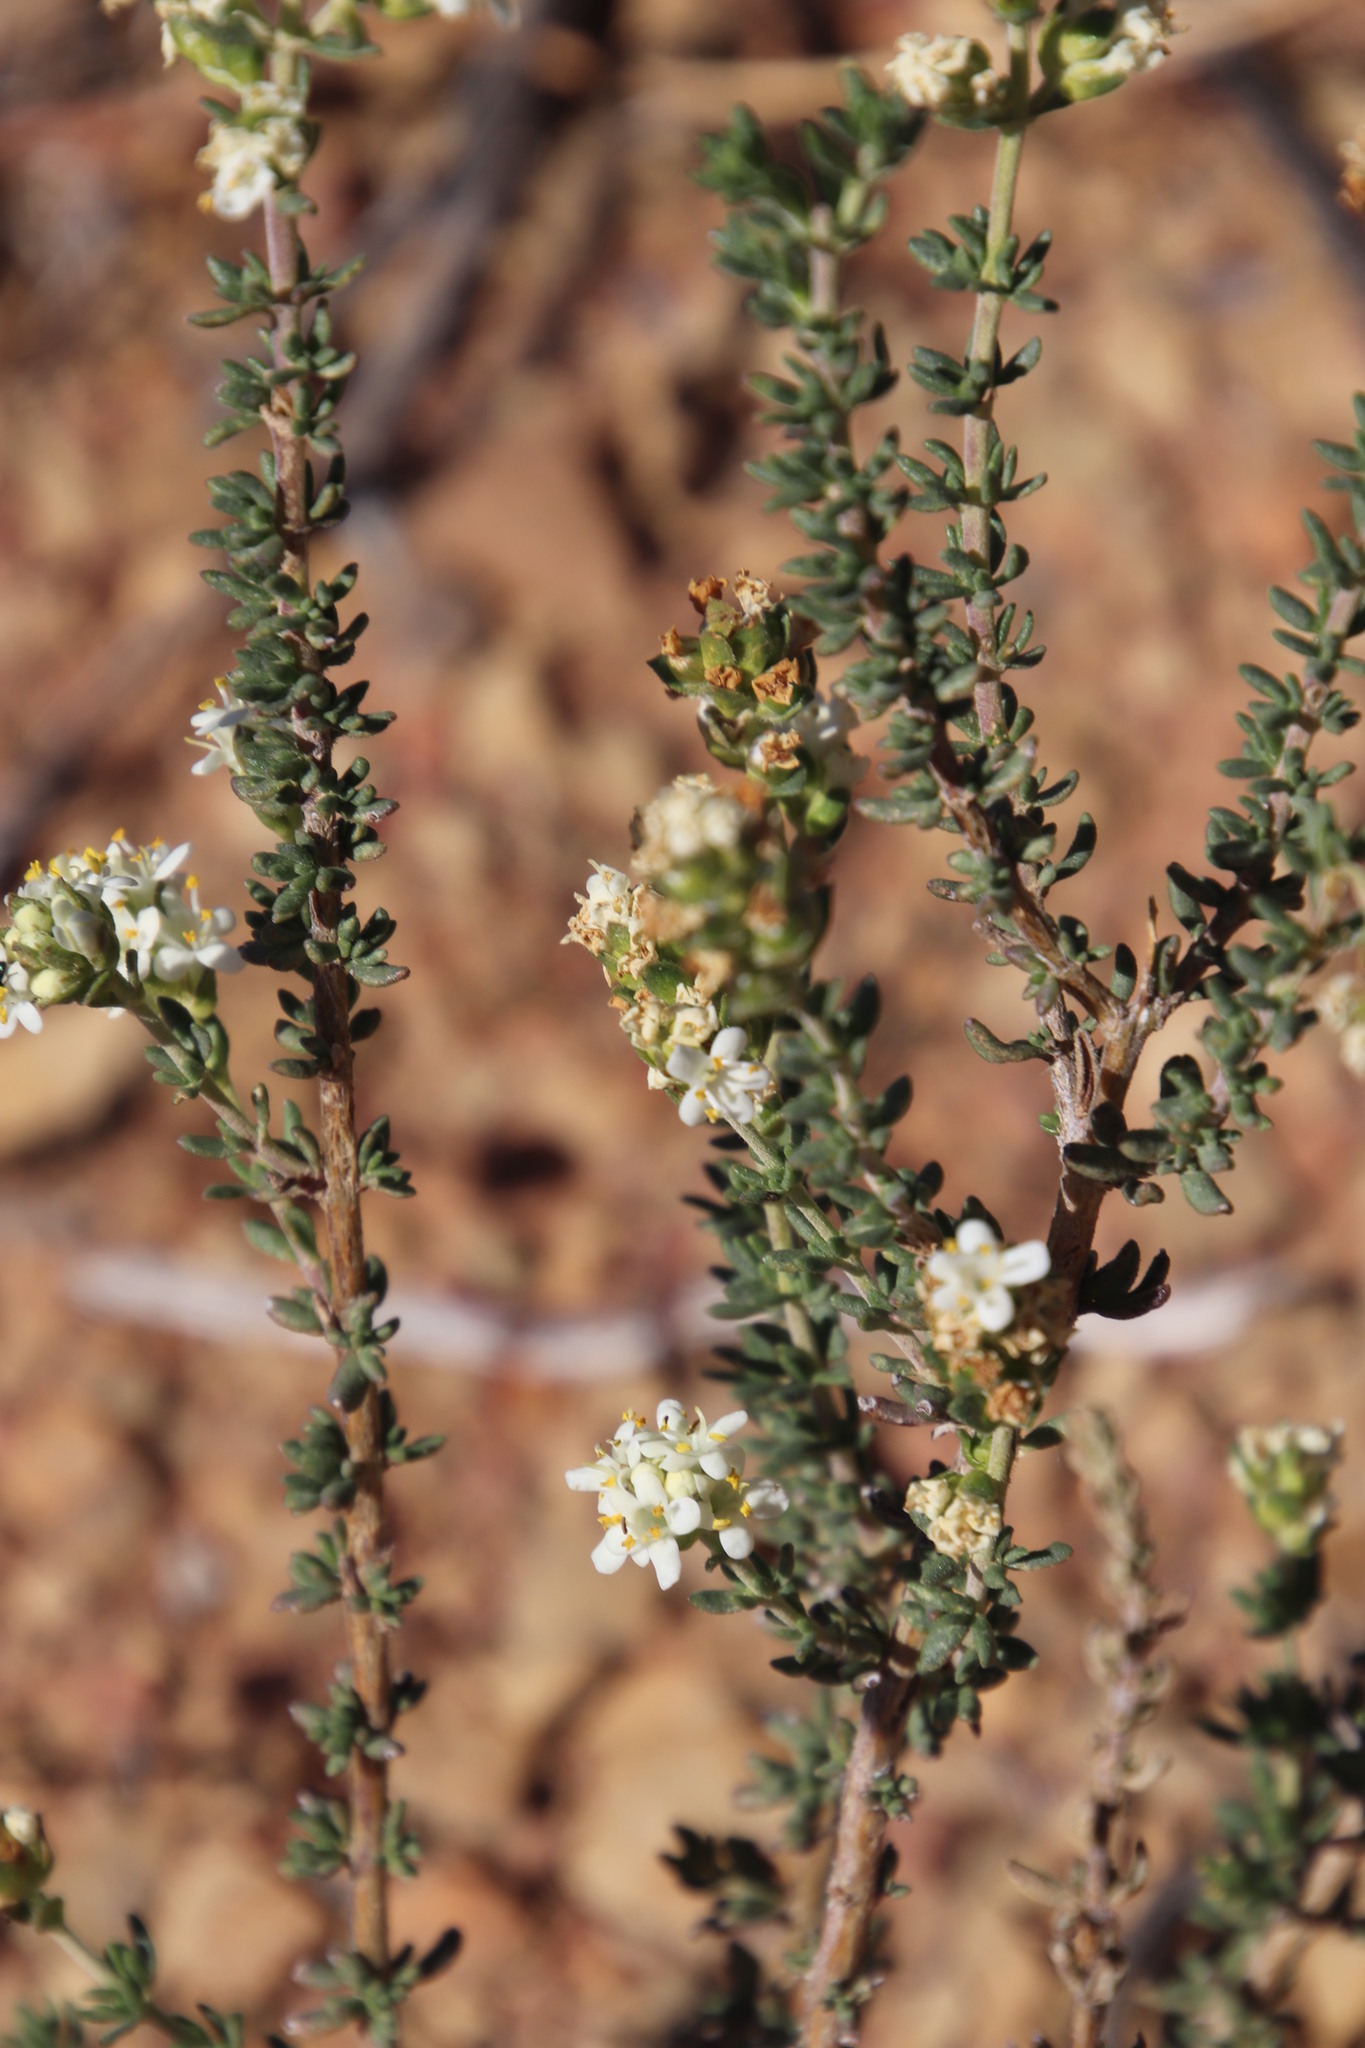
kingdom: Plantae
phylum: Tracheophyta
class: Magnoliopsida
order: Lamiales
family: Scrophulariaceae
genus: Selago
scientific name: Selago pinguicula
